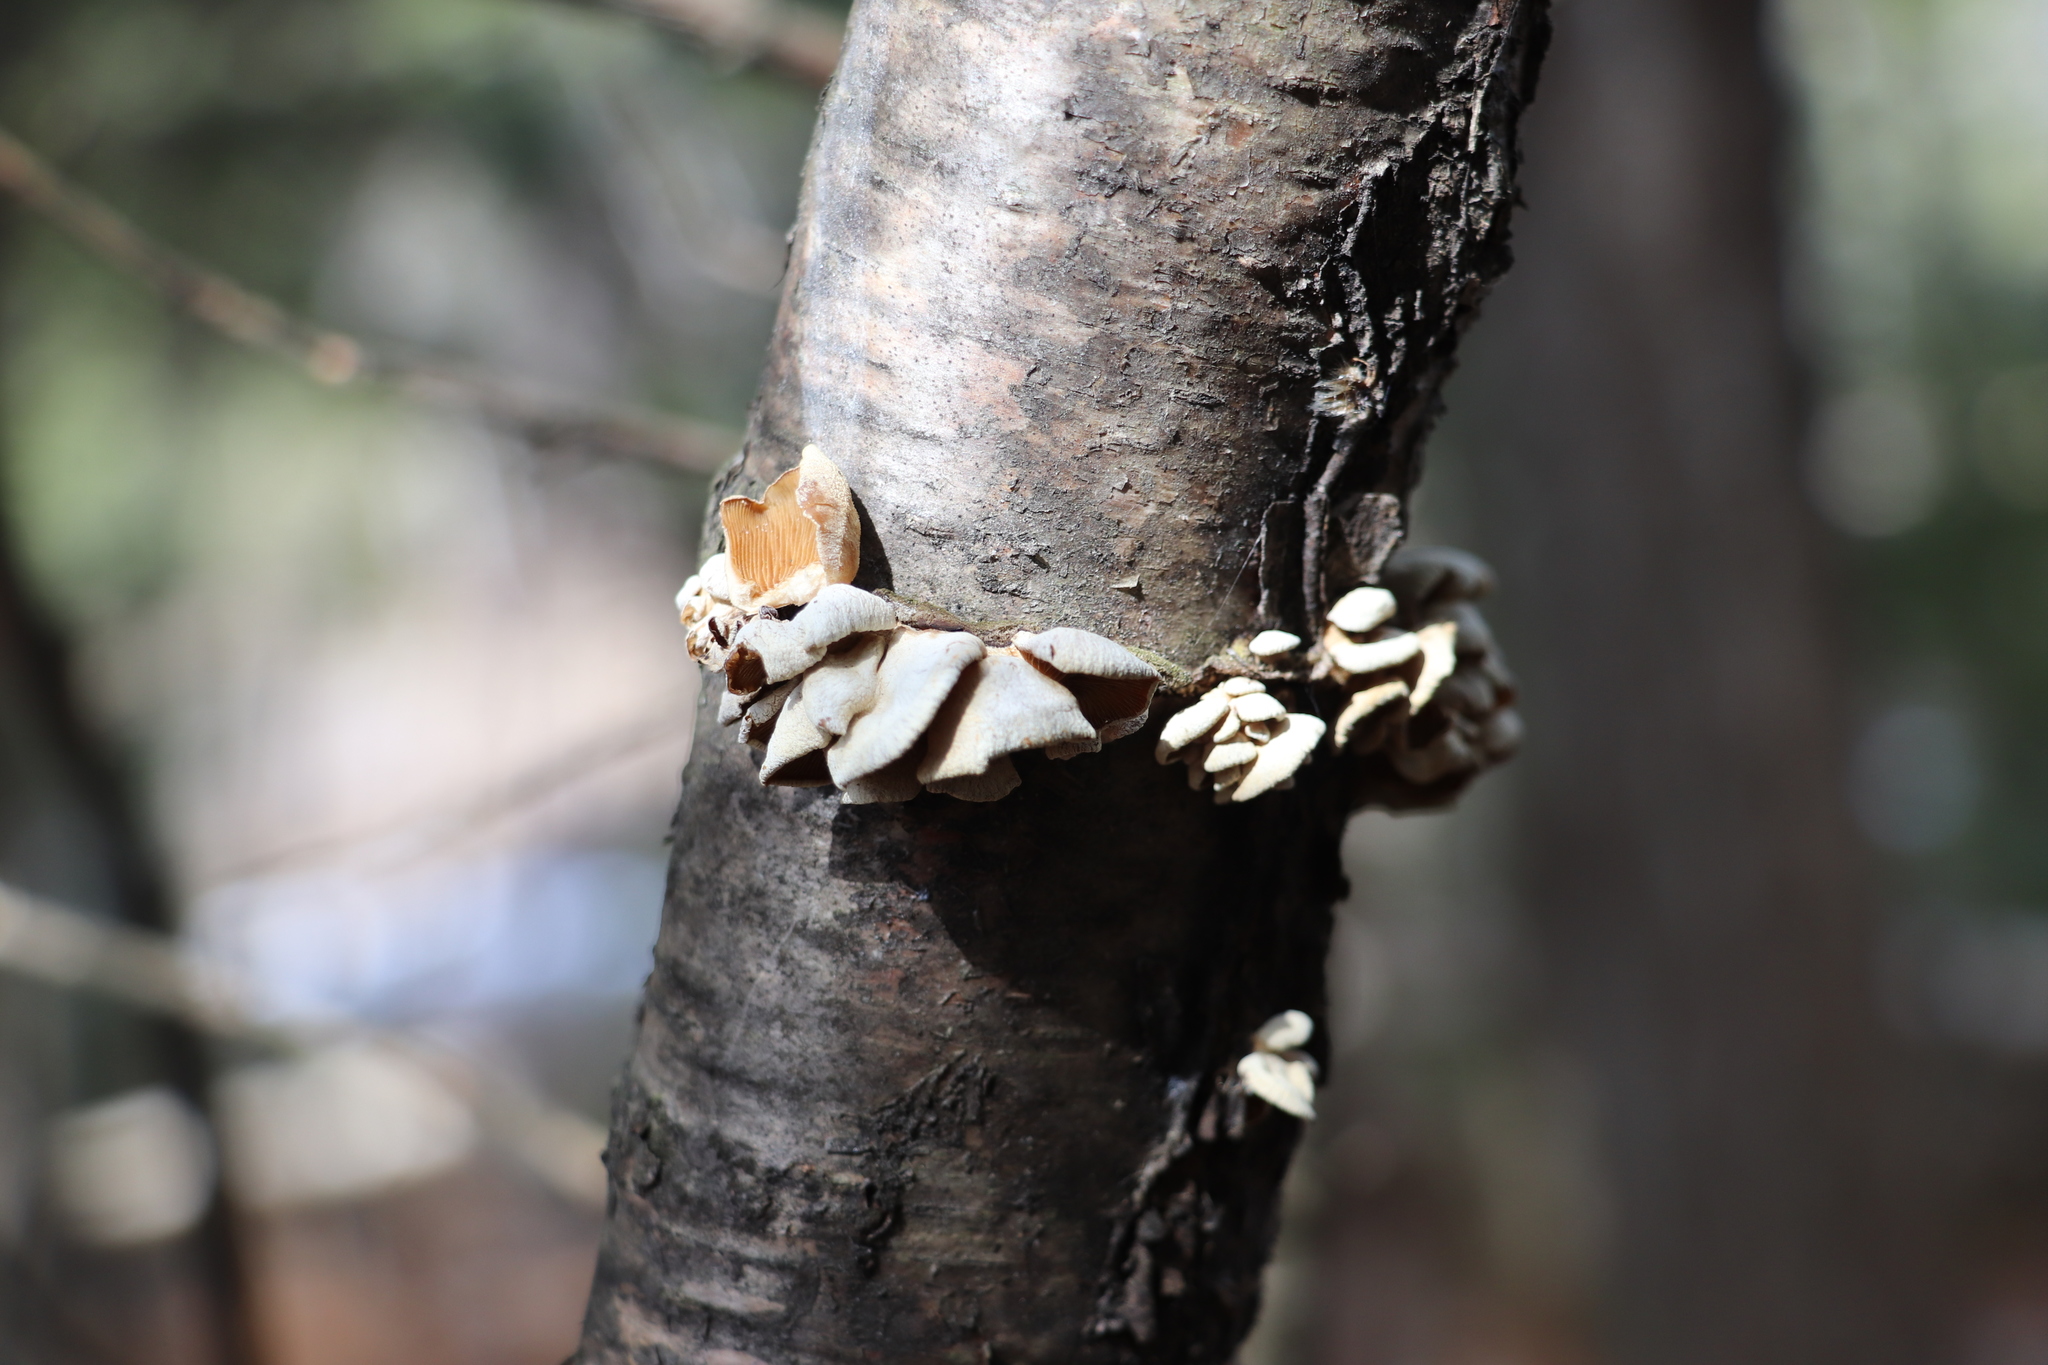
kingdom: Fungi
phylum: Basidiomycota
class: Agaricomycetes
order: Agaricales
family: Mycenaceae
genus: Panellus
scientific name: Panellus stipticus
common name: Bitter oysterling
